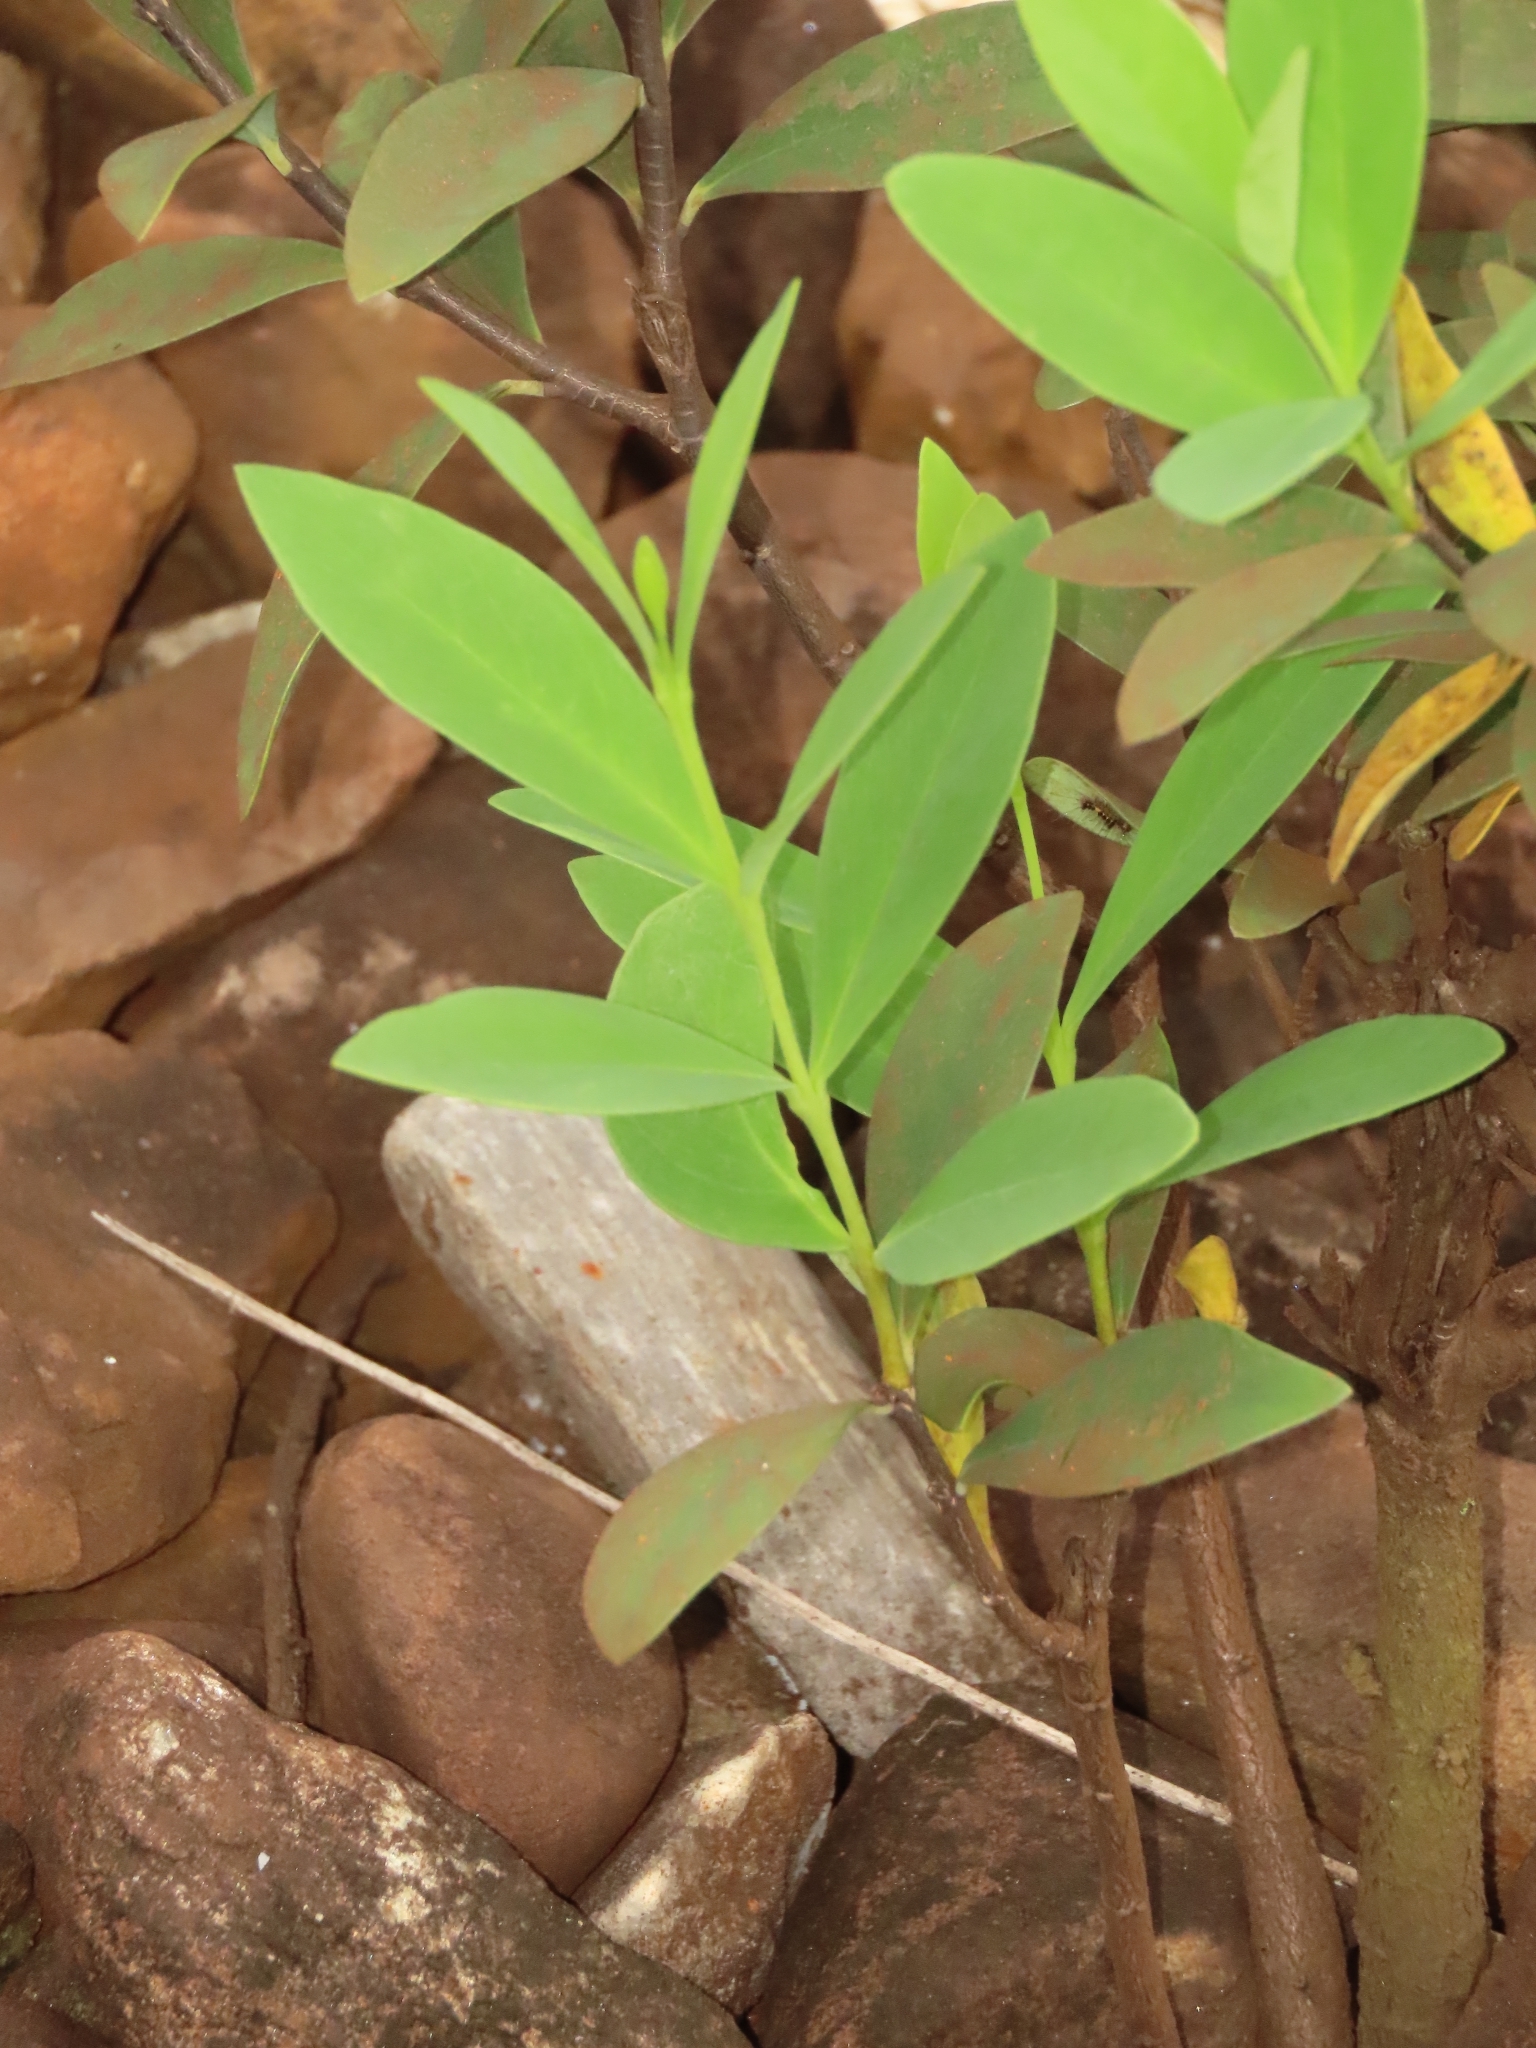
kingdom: Plantae
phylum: Tracheophyta
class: Magnoliopsida
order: Malvales
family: Thymelaeaceae
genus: Wikstroemia
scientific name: Wikstroemia indica
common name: Tiebush
